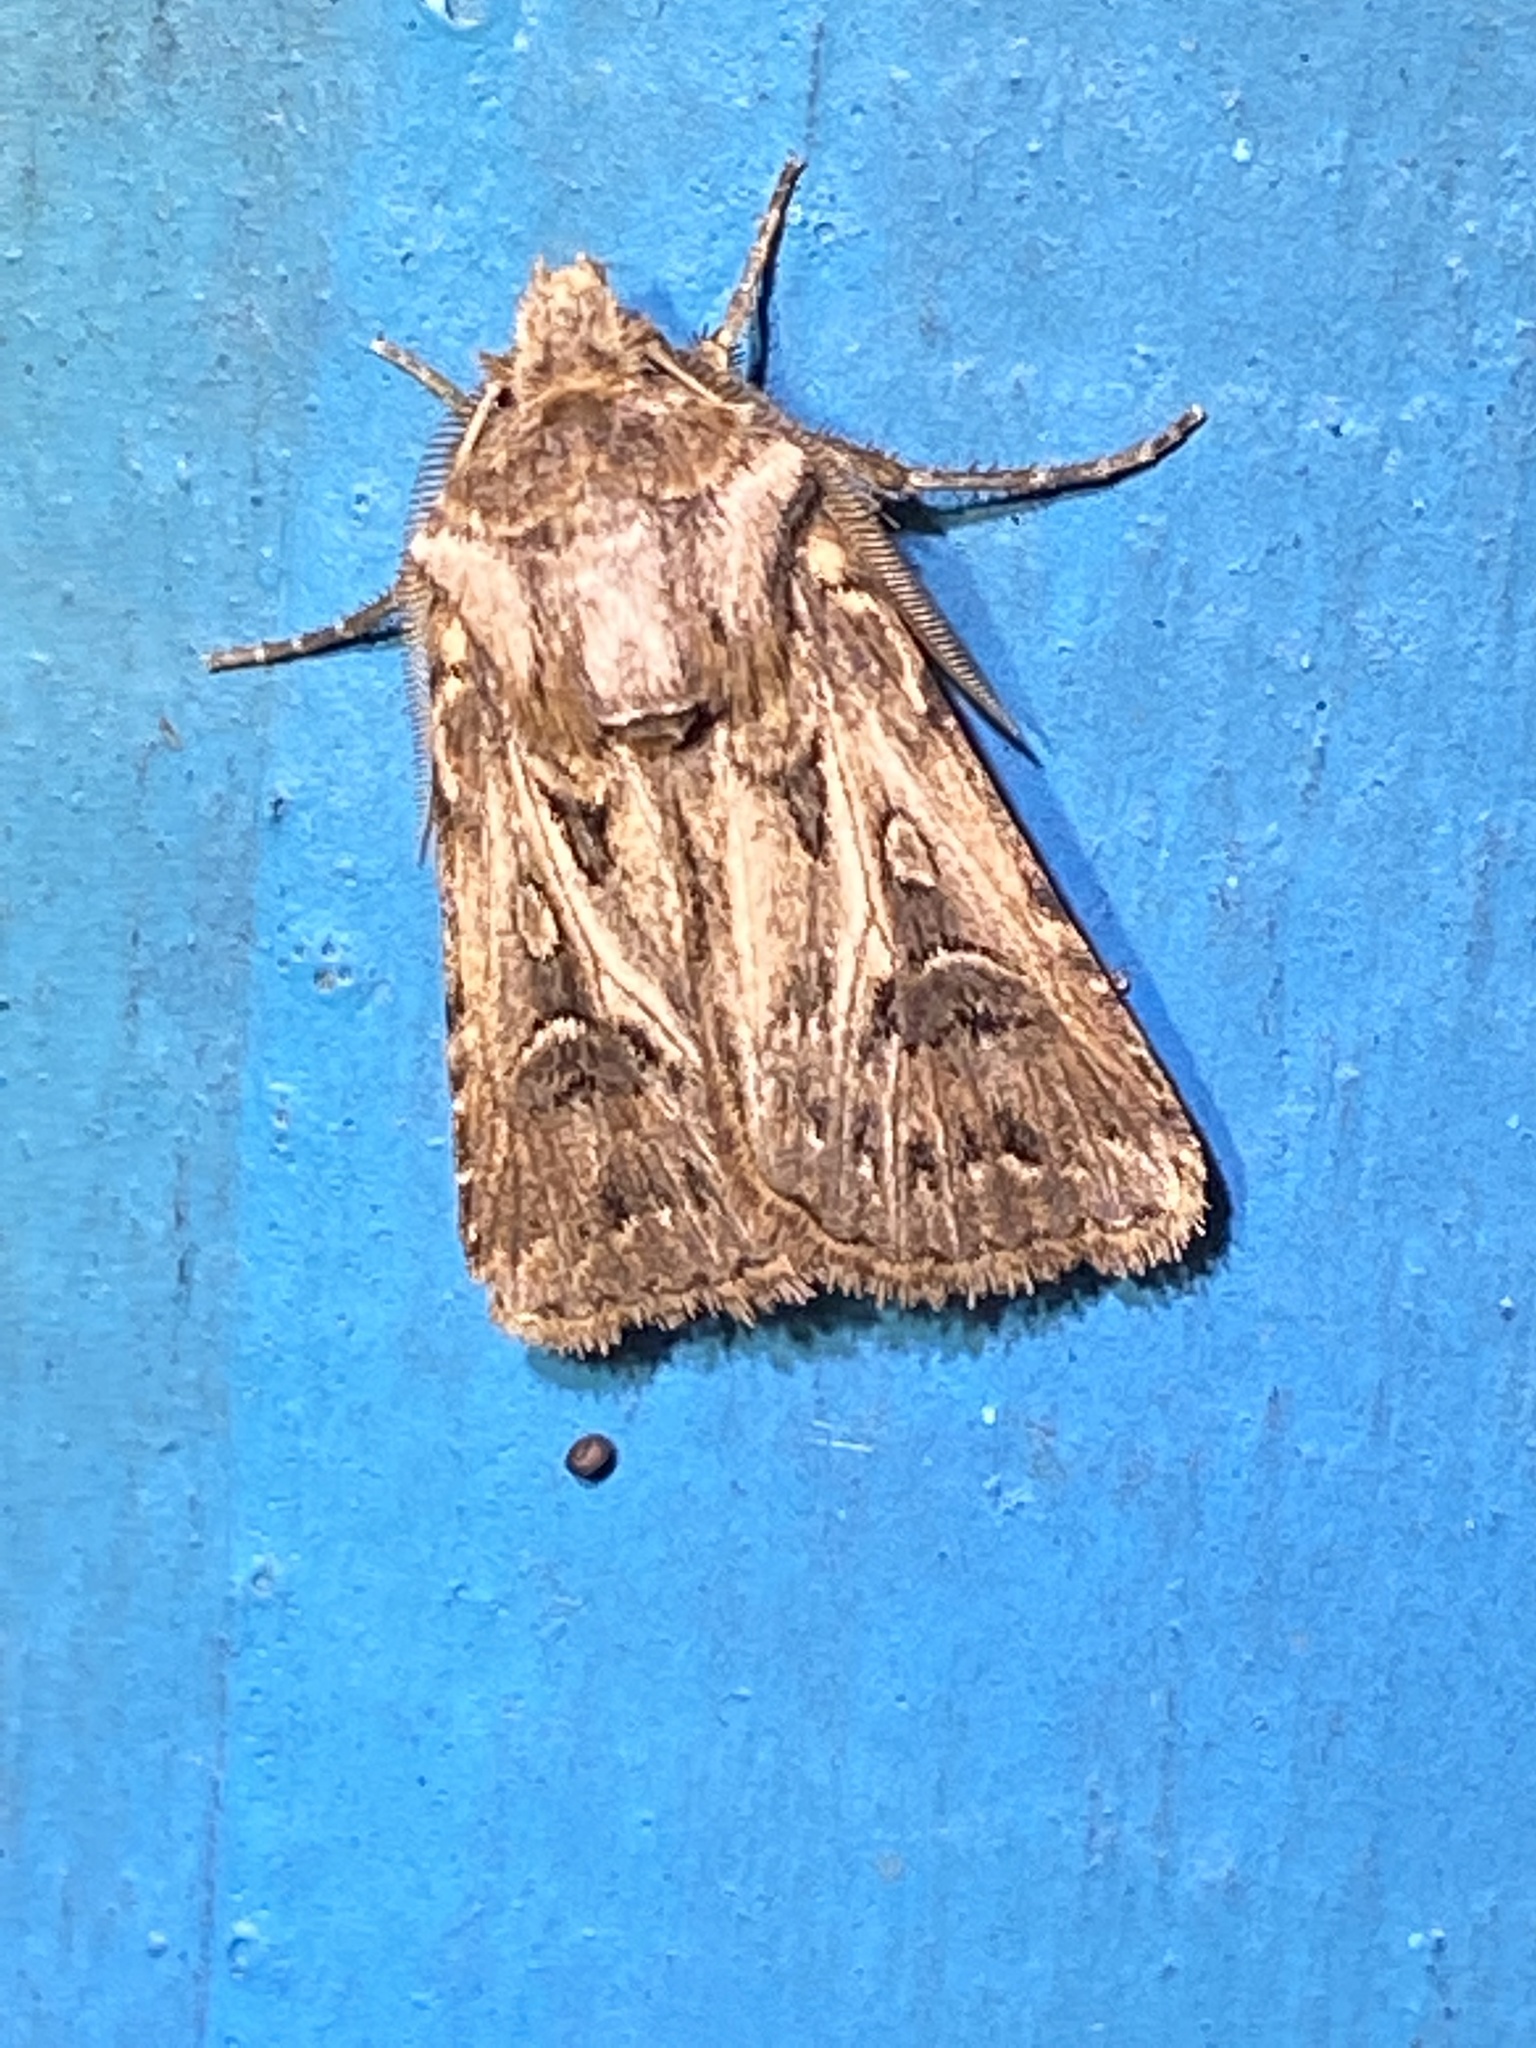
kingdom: Animalia
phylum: Arthropoda
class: Insecta
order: Lepidoptera
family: Noctuidae
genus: Agrotis
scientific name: Agrotis gladiaria
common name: Claybacked cutworm
